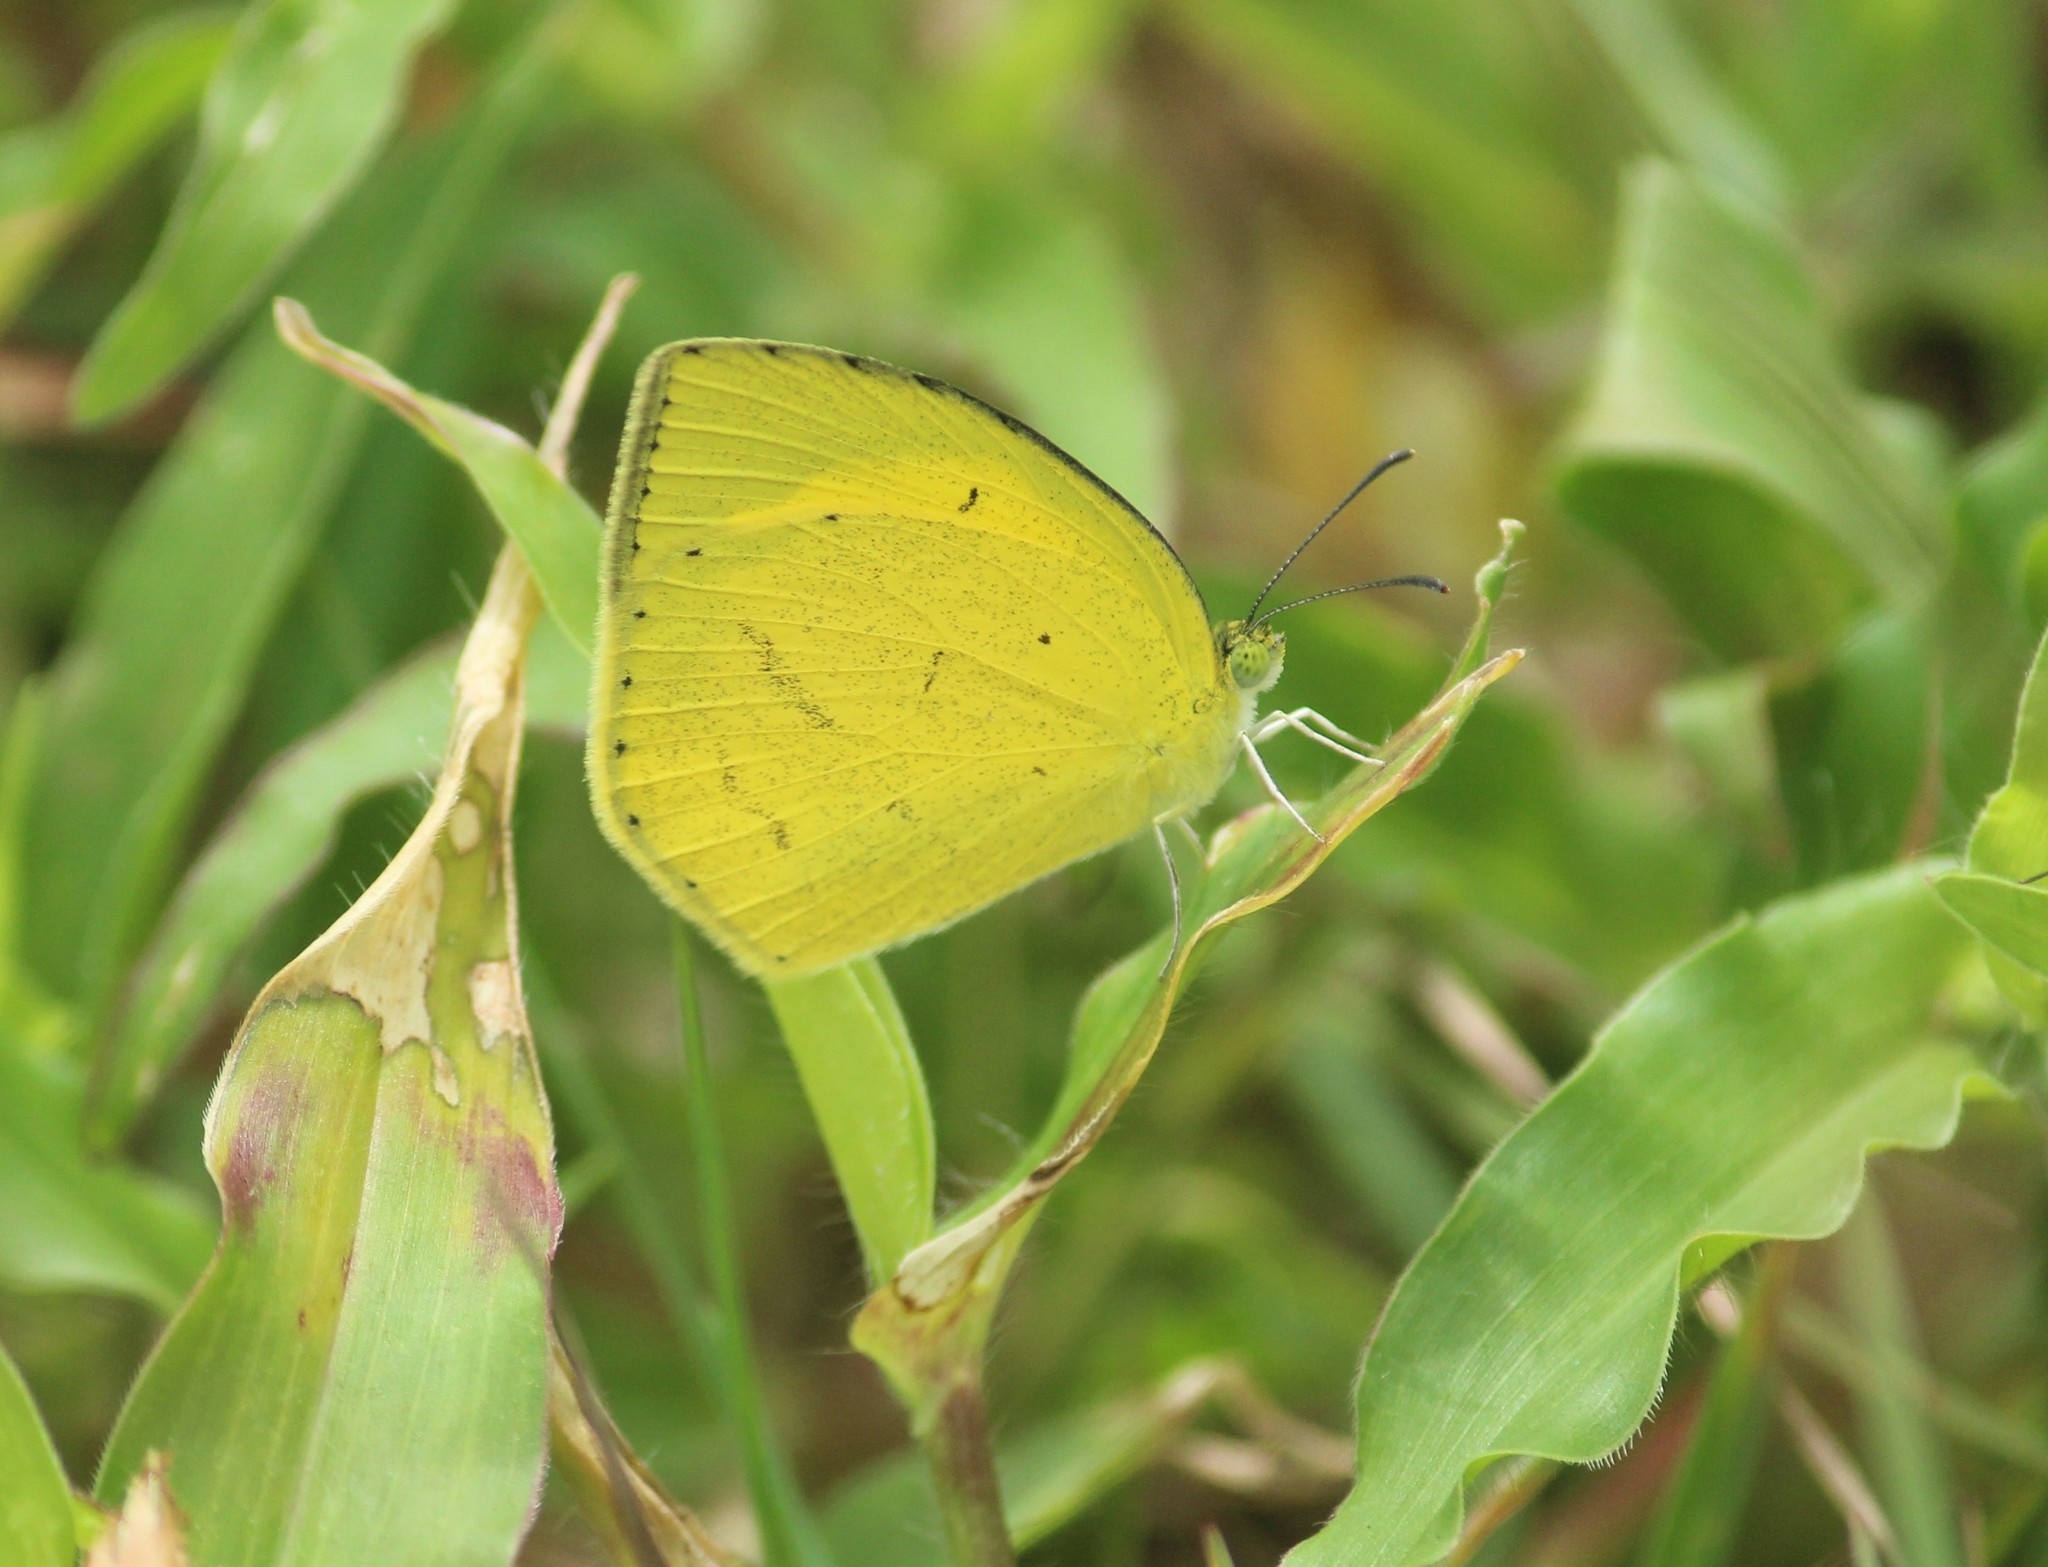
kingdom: Animalia
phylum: Arthropoda
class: Insecta
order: Lepidoptera
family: Pieridae
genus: Eurema
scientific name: Eurema laeta
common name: Spotless grass yellow
